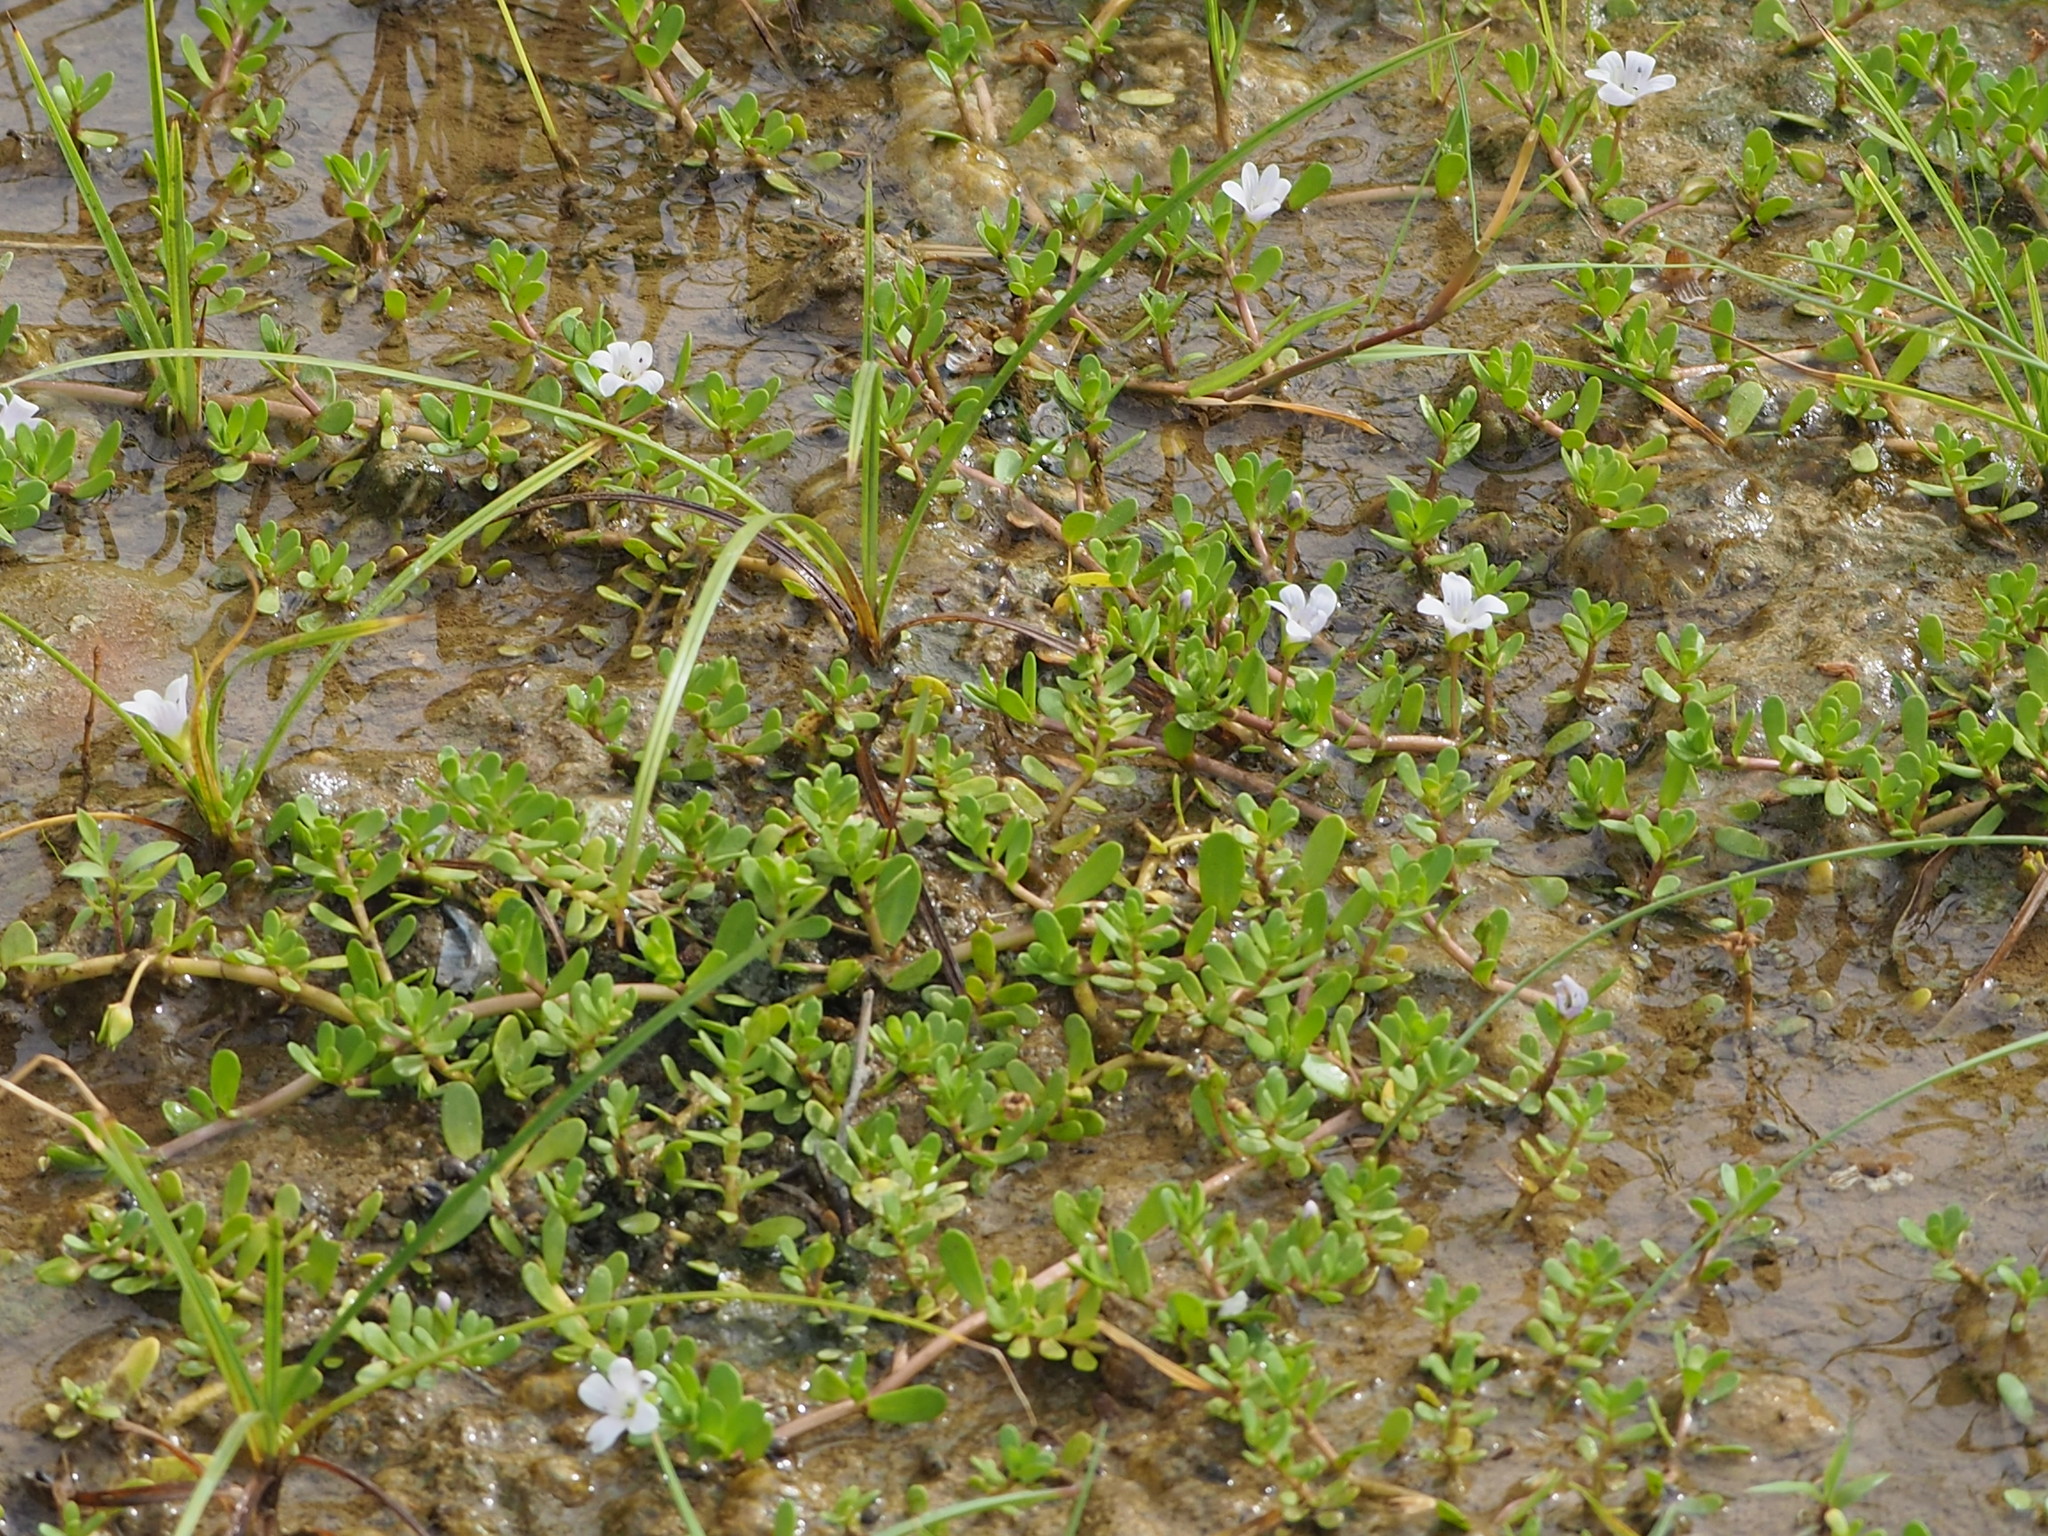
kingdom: Plantae
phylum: Tracheophyta
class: Magnoliopsida
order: Lamiales
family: Plantaginaceae
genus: Bacopa
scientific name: Bacopa monnieri
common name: Indian-pennywort
